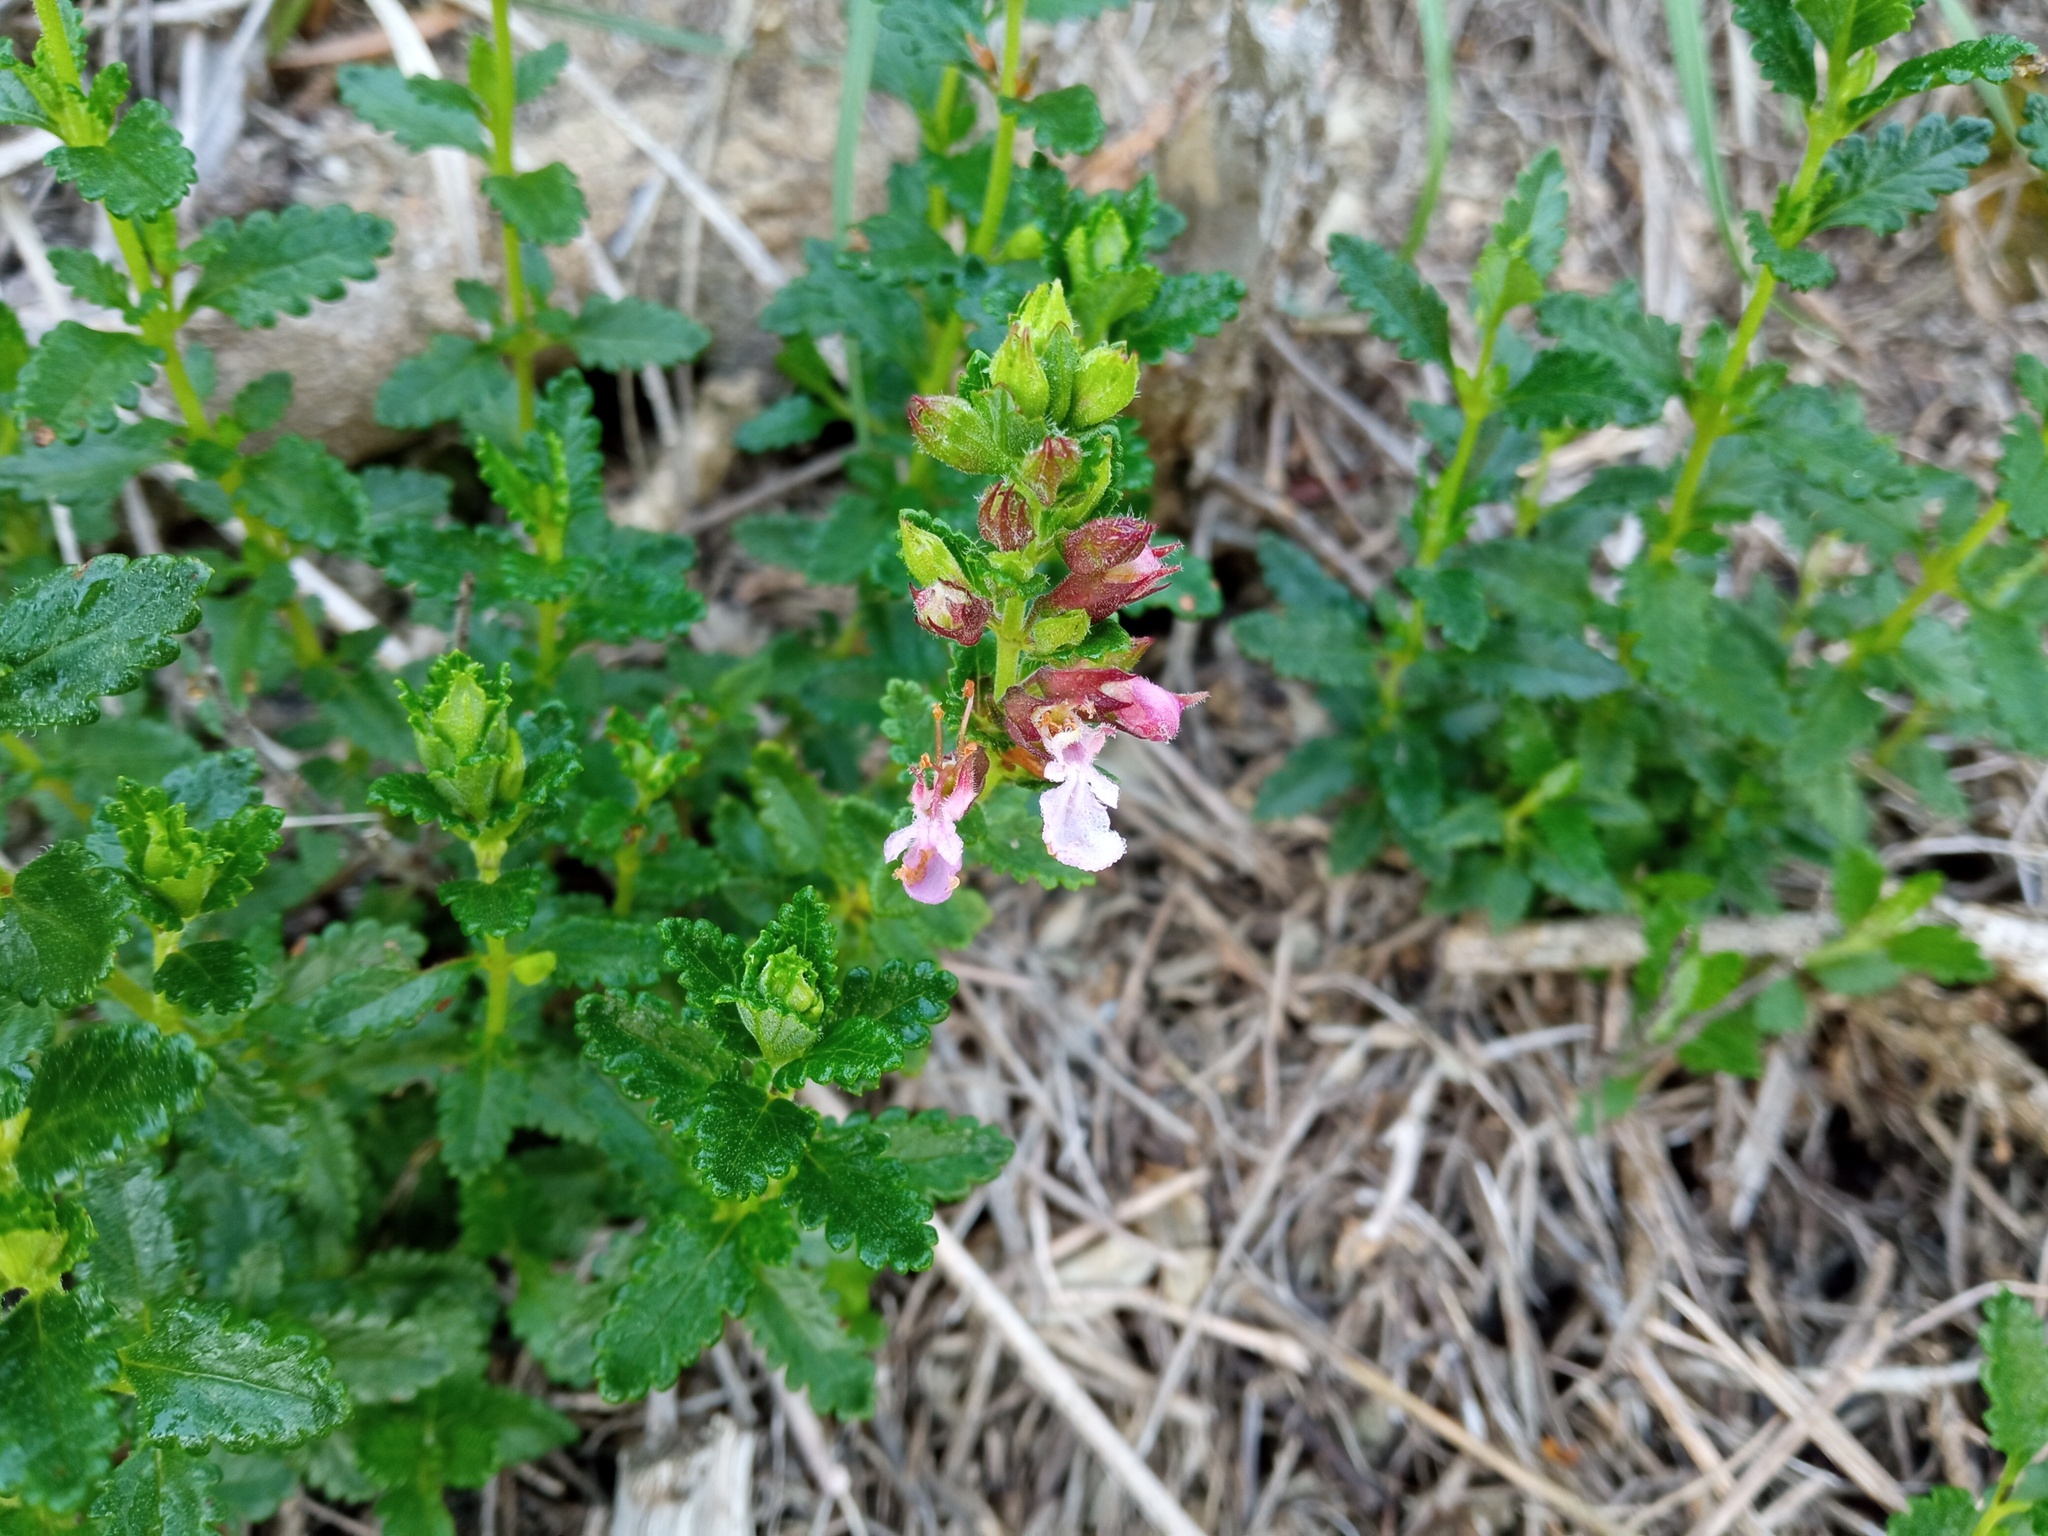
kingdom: Plantae
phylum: Tracheophyta
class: Magnoliopsida
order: Lamiales
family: Lamiaceae
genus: Teucrium
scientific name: Teucrium chamaedrys
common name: Wall germander
